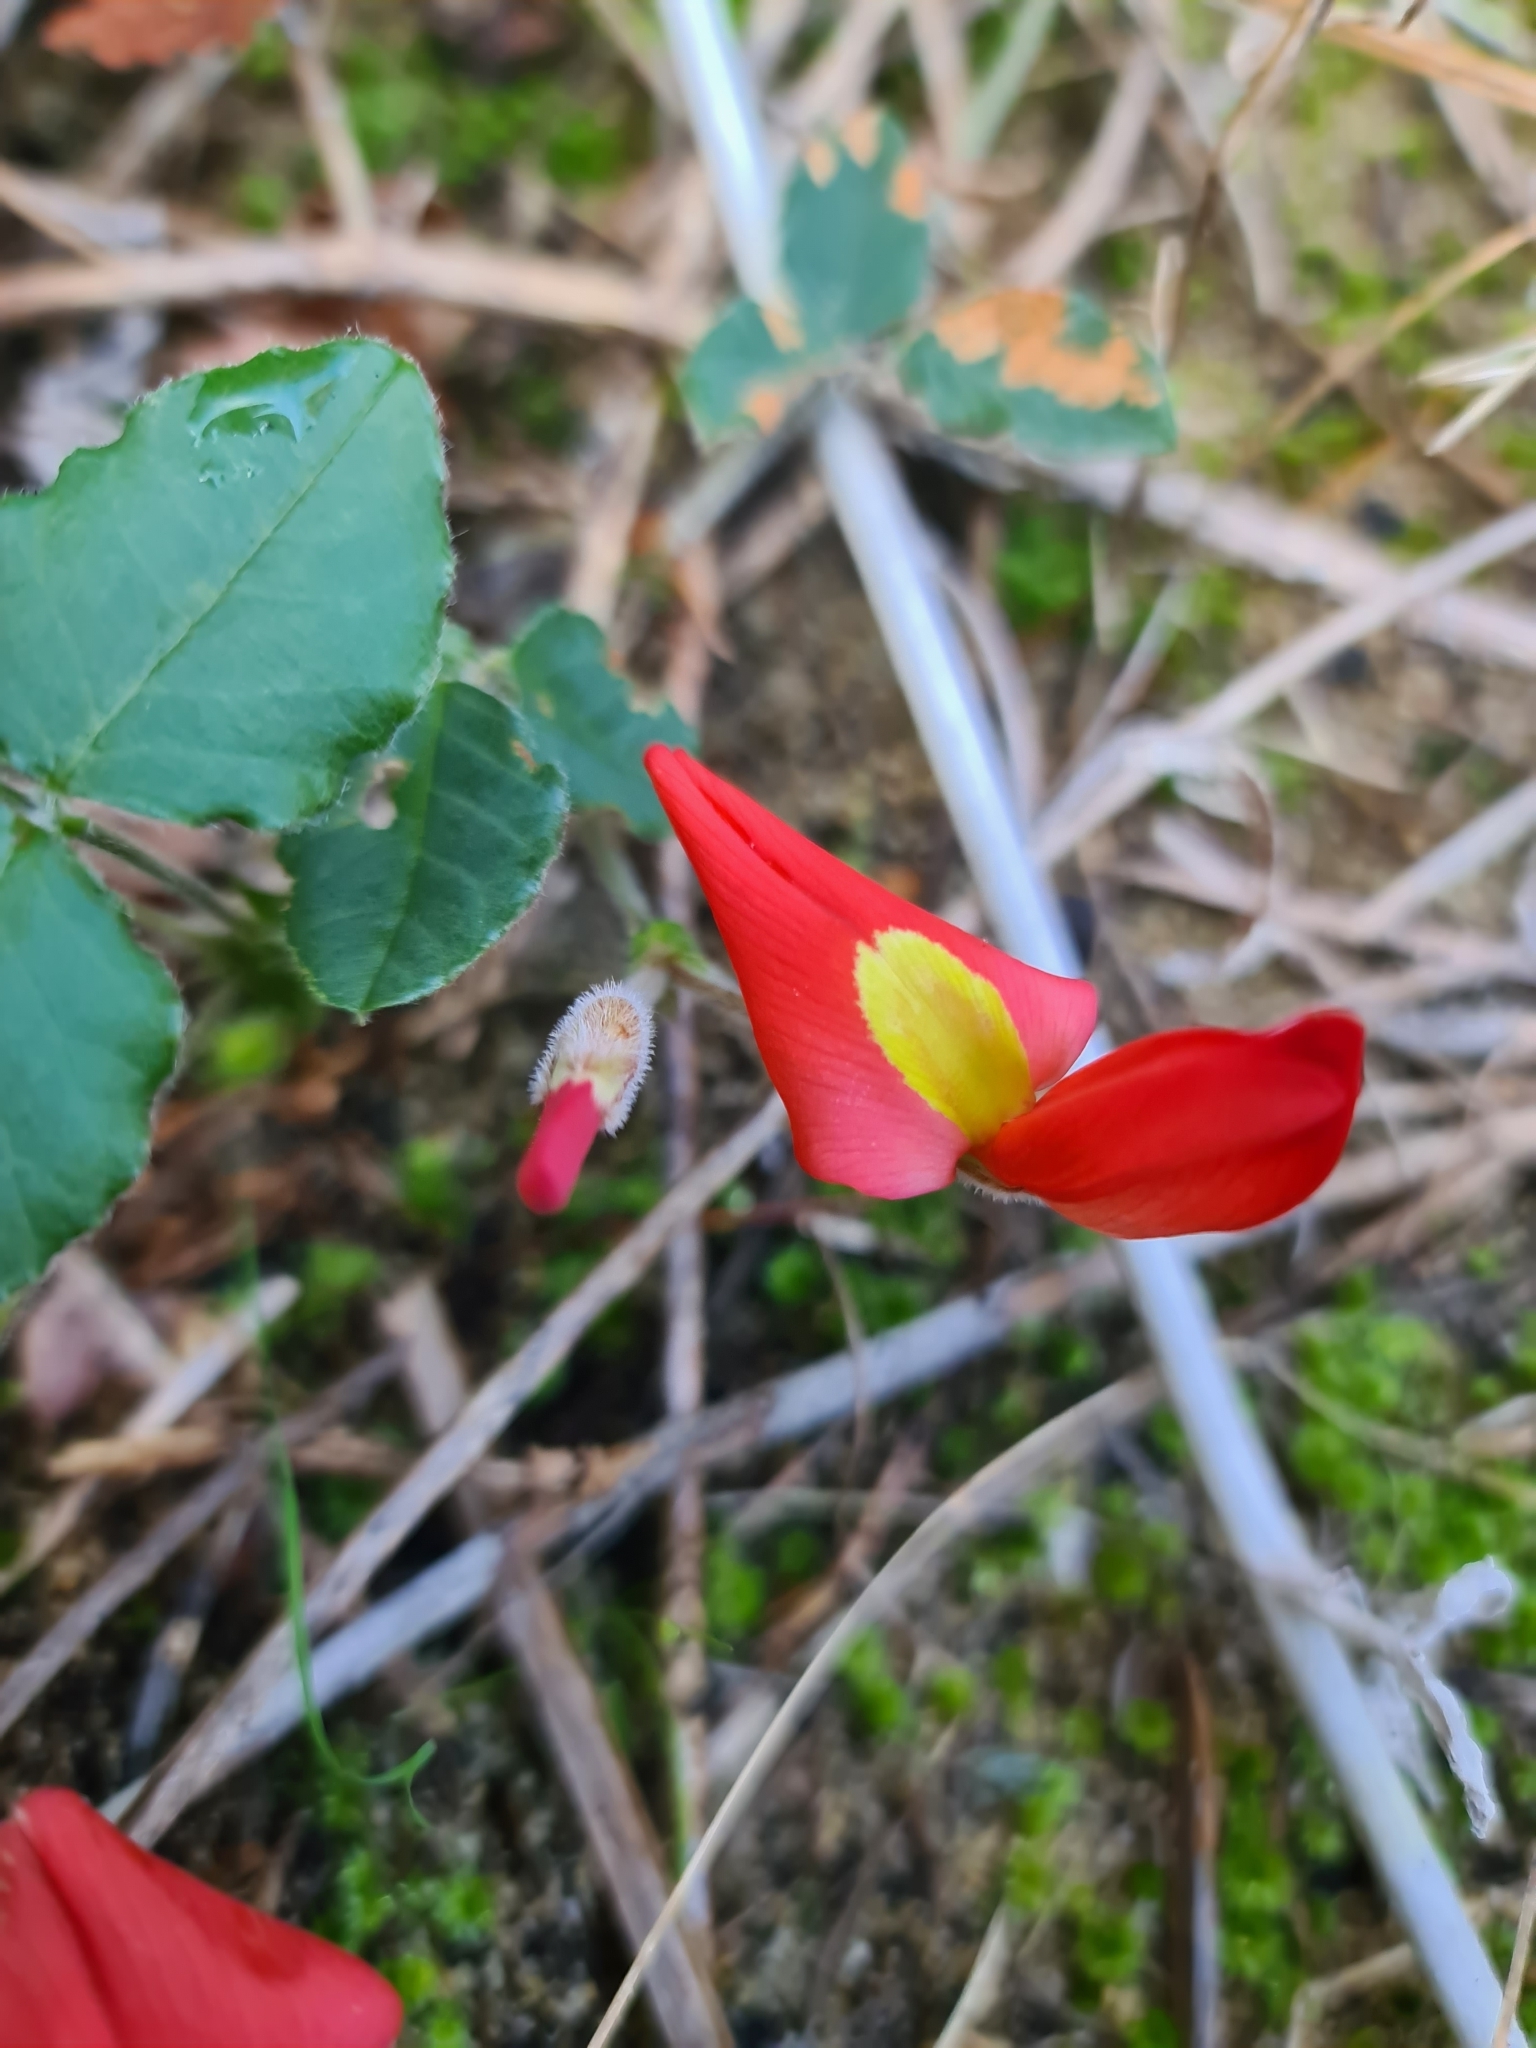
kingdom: Plantae
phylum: Tracheophyta
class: Magnoliopsida
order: Fabales
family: Fabaceae
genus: Kennedia
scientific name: Kennedia prostrata
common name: Running-postman
